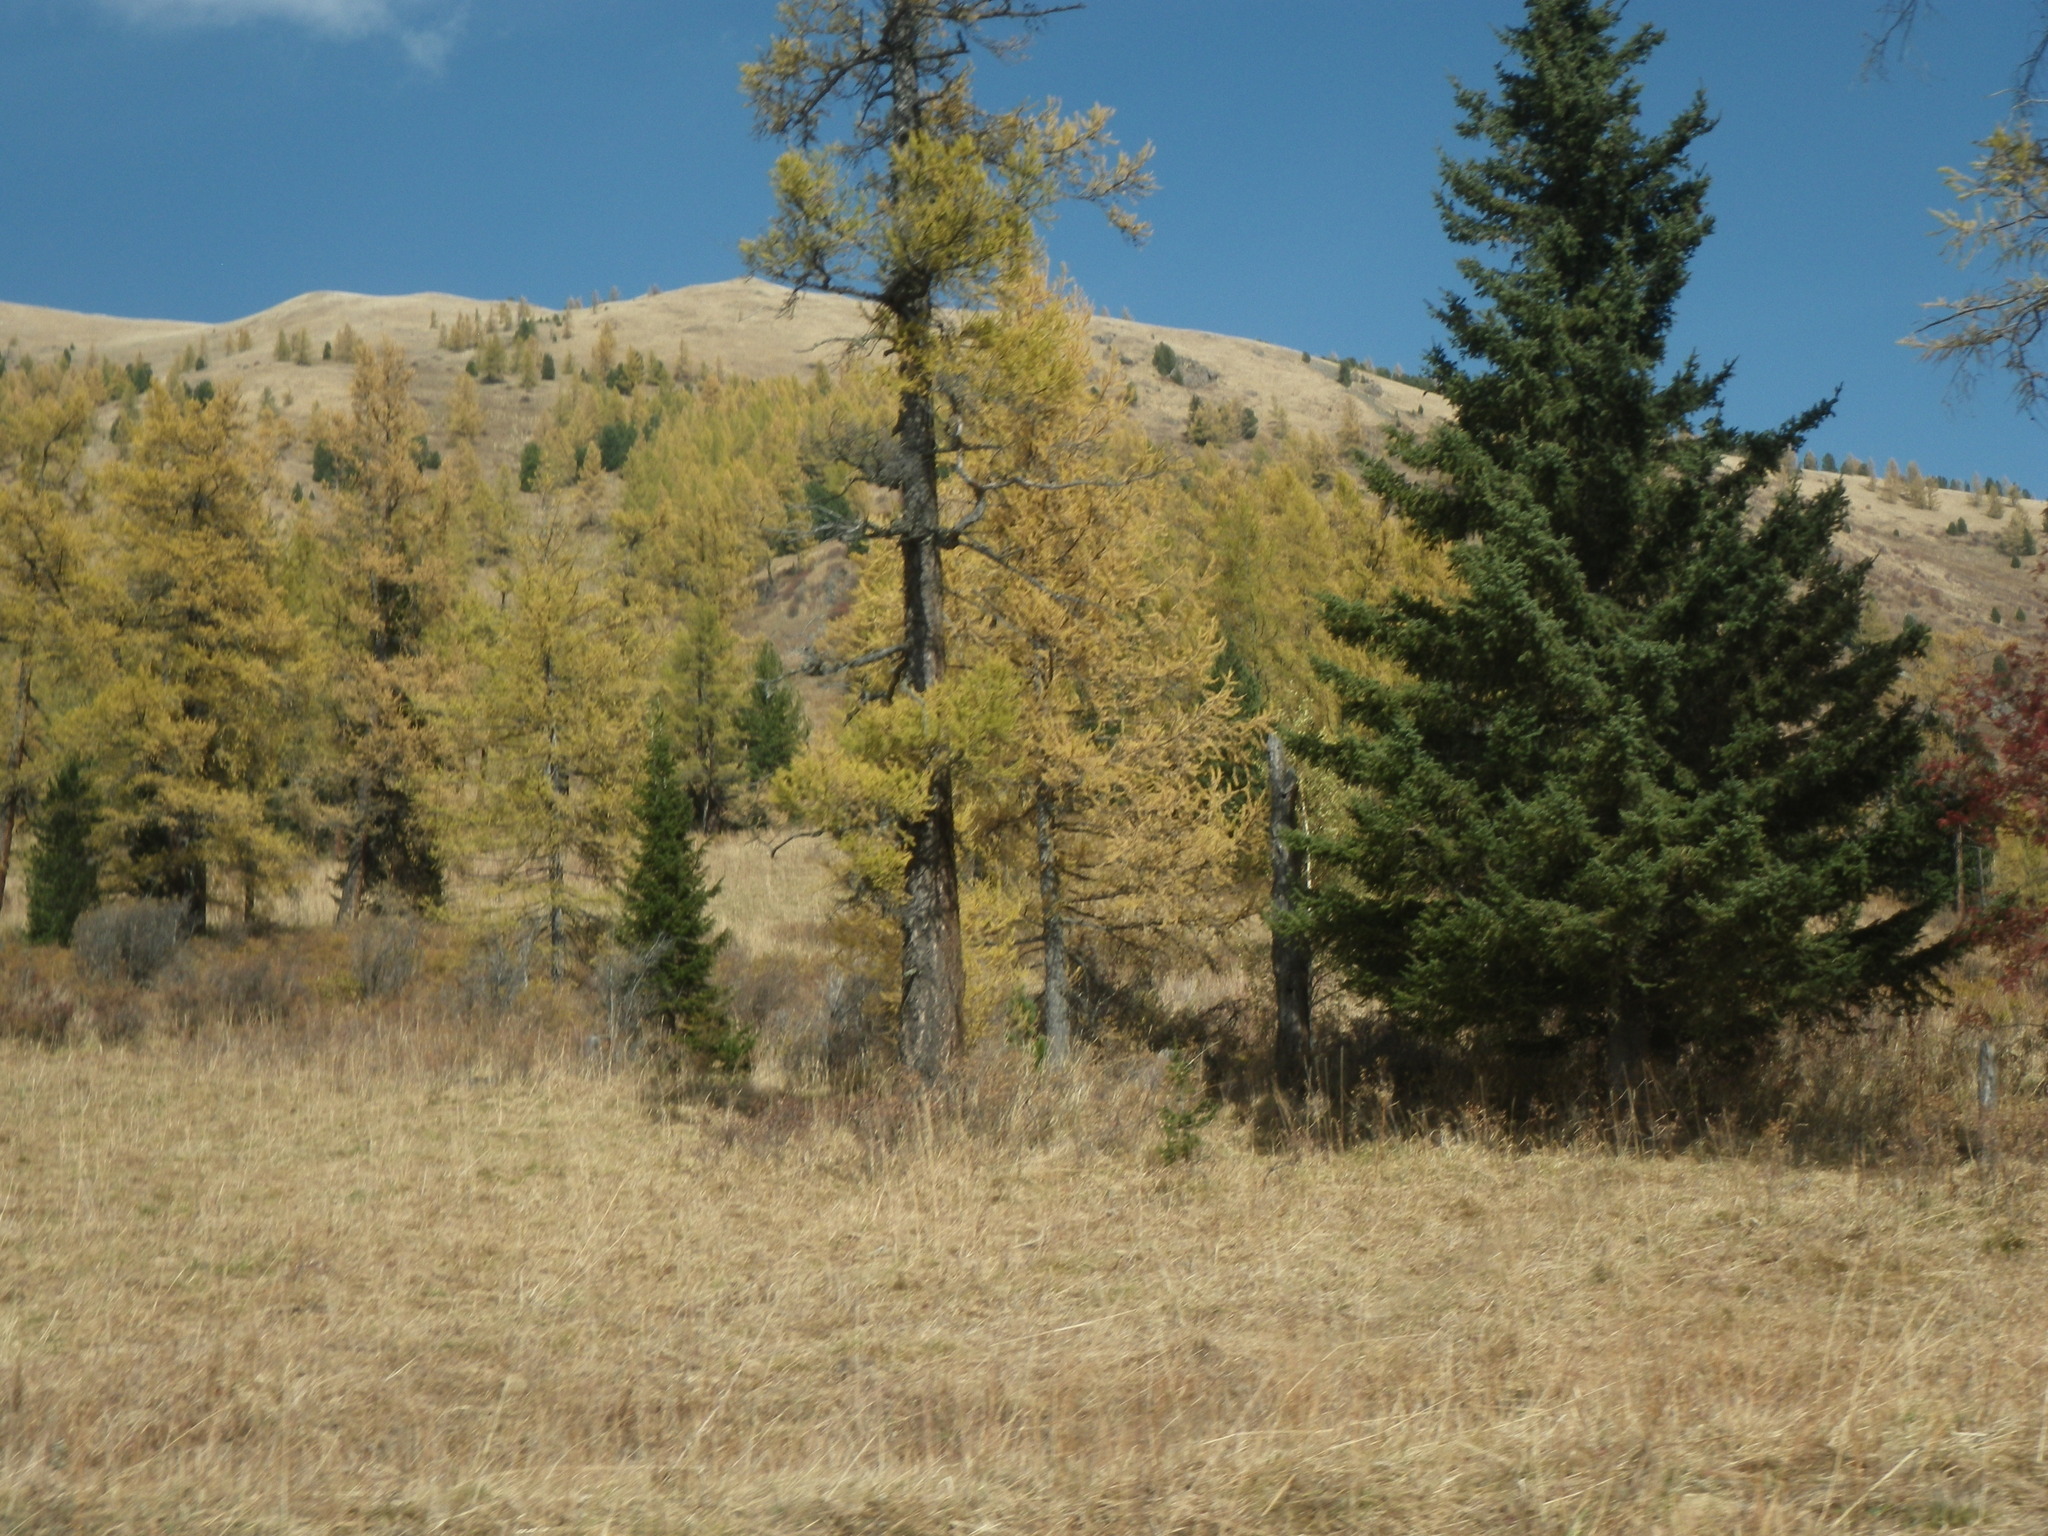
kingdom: Plantae
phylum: Tracheophyta
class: Pinopsida
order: Pinales
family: Pinaceae
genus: Picea
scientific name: Picea obovata
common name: Siberian spruce
